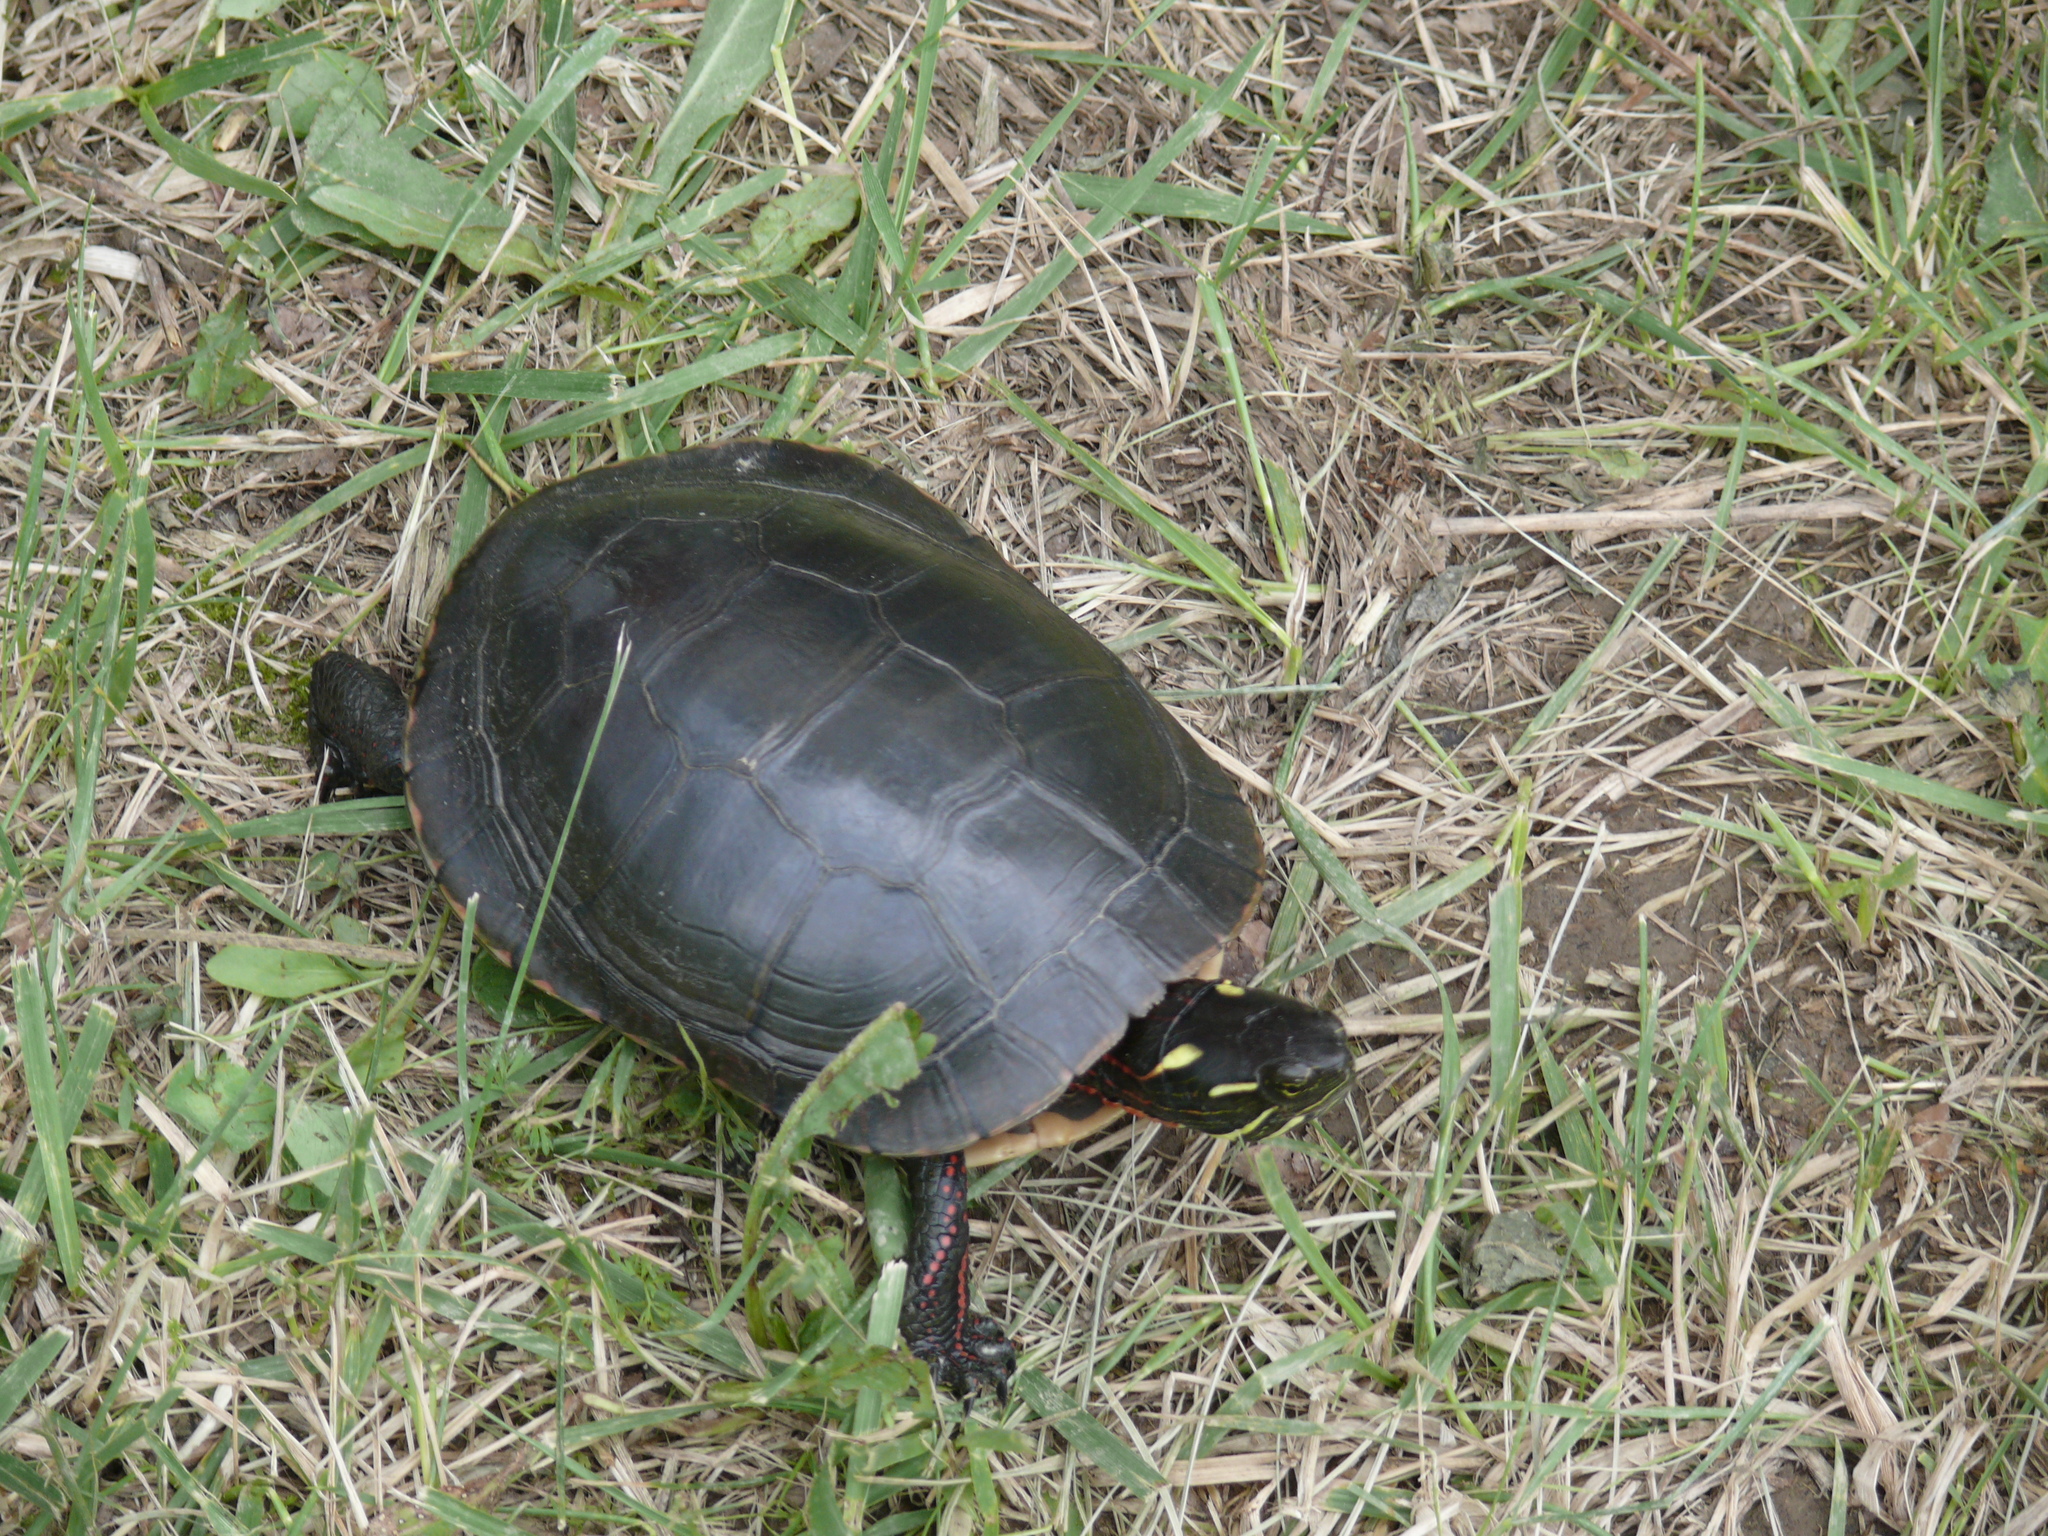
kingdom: Animalia
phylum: Chordata
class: Testudines
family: Emydidae
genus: Chrysemys
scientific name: Chrysemys picta
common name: Painted turtle
